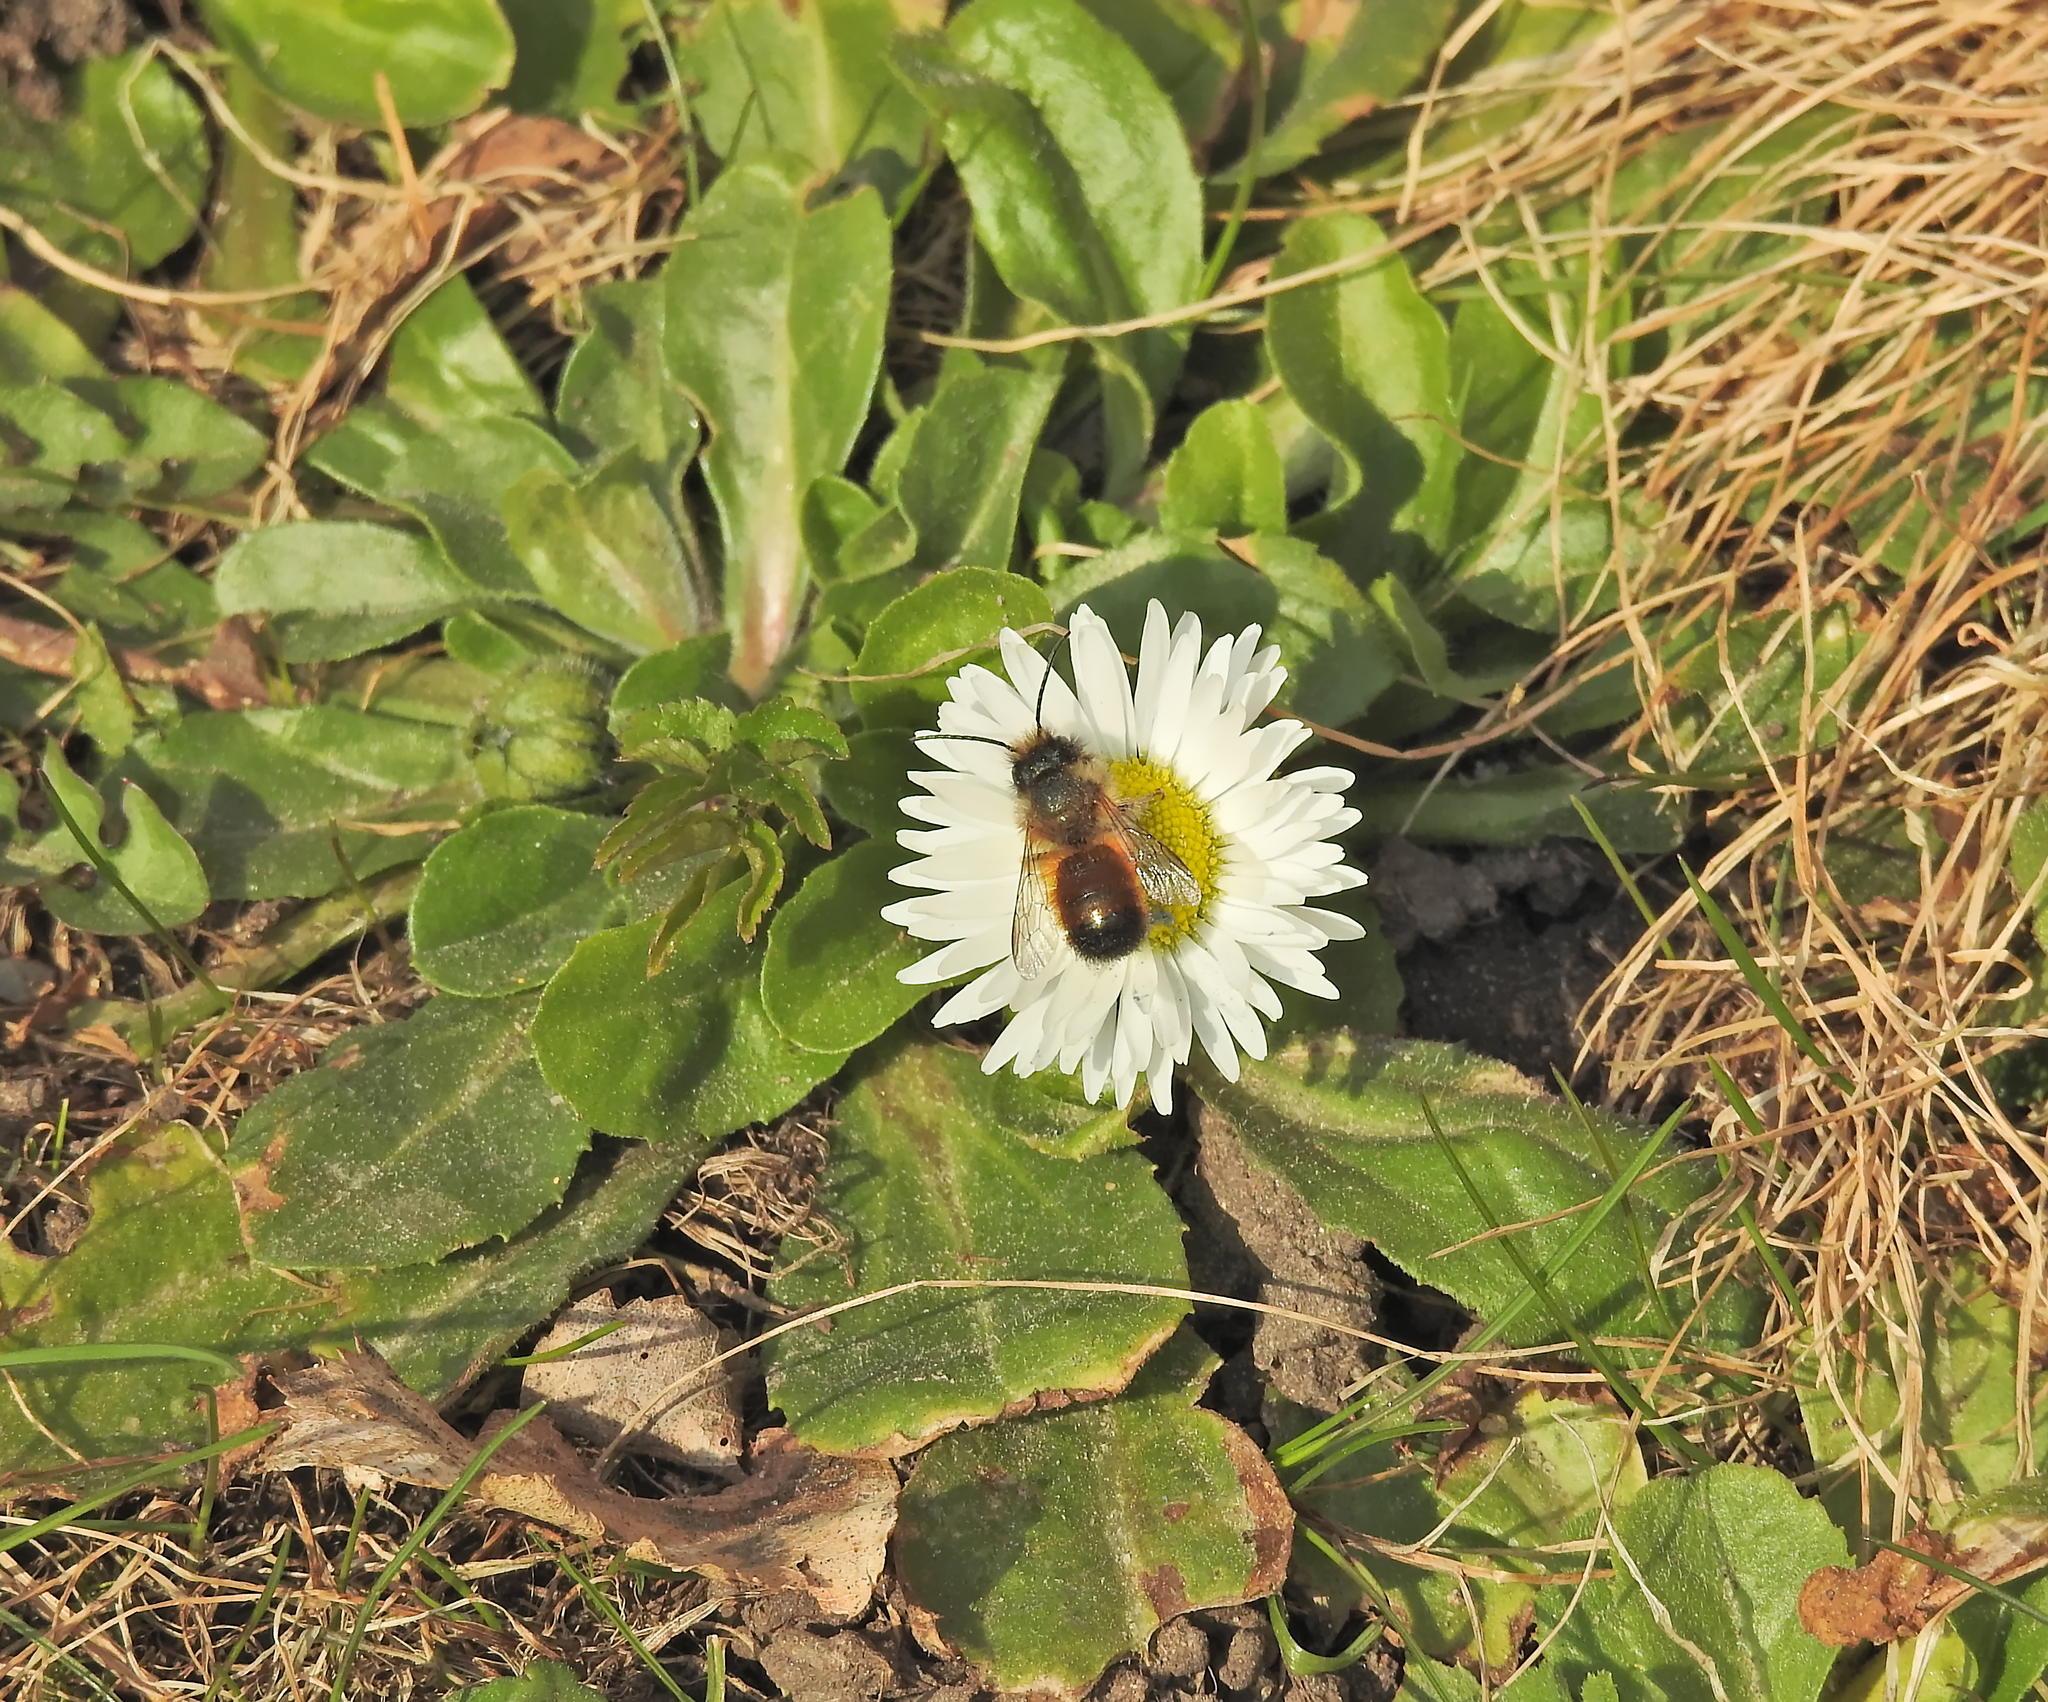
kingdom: Animalia
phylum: Arthropoda
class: Insecta
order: Hymenoptera
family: Megachilidae
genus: Osmia
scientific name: Osmia bicornis
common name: Red mason bee
